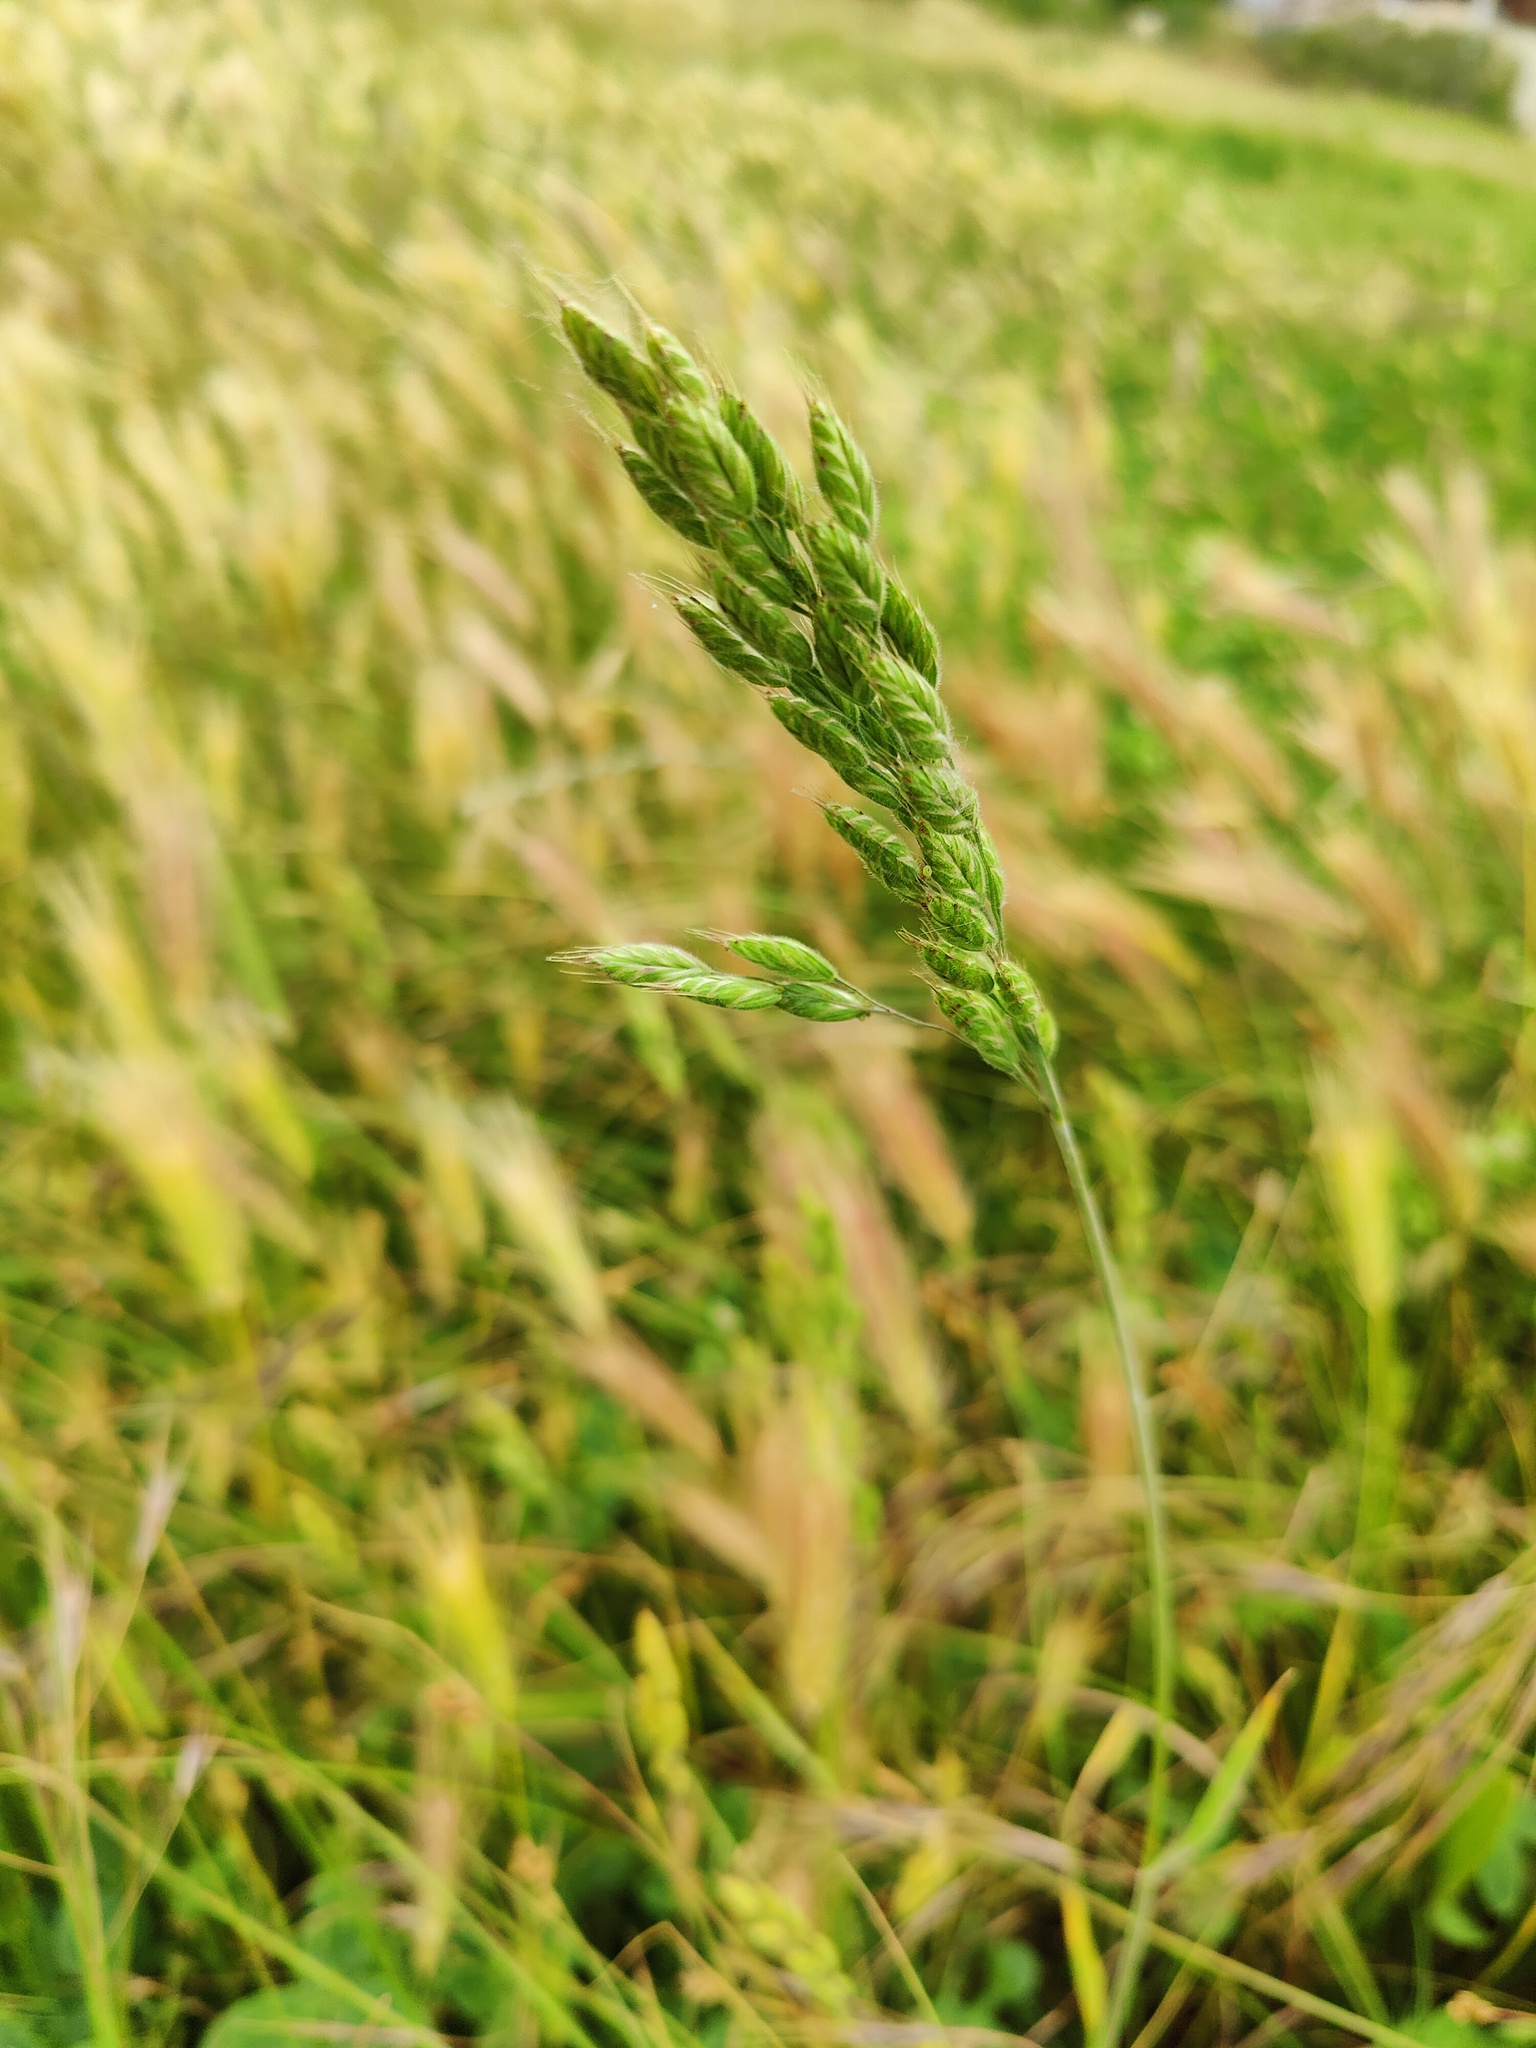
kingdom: Plantae
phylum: Tracheophyta
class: Liliopsida
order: Poales
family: Poaceae
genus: Bromus
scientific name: Bromus hordeaceus
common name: Soft brome
